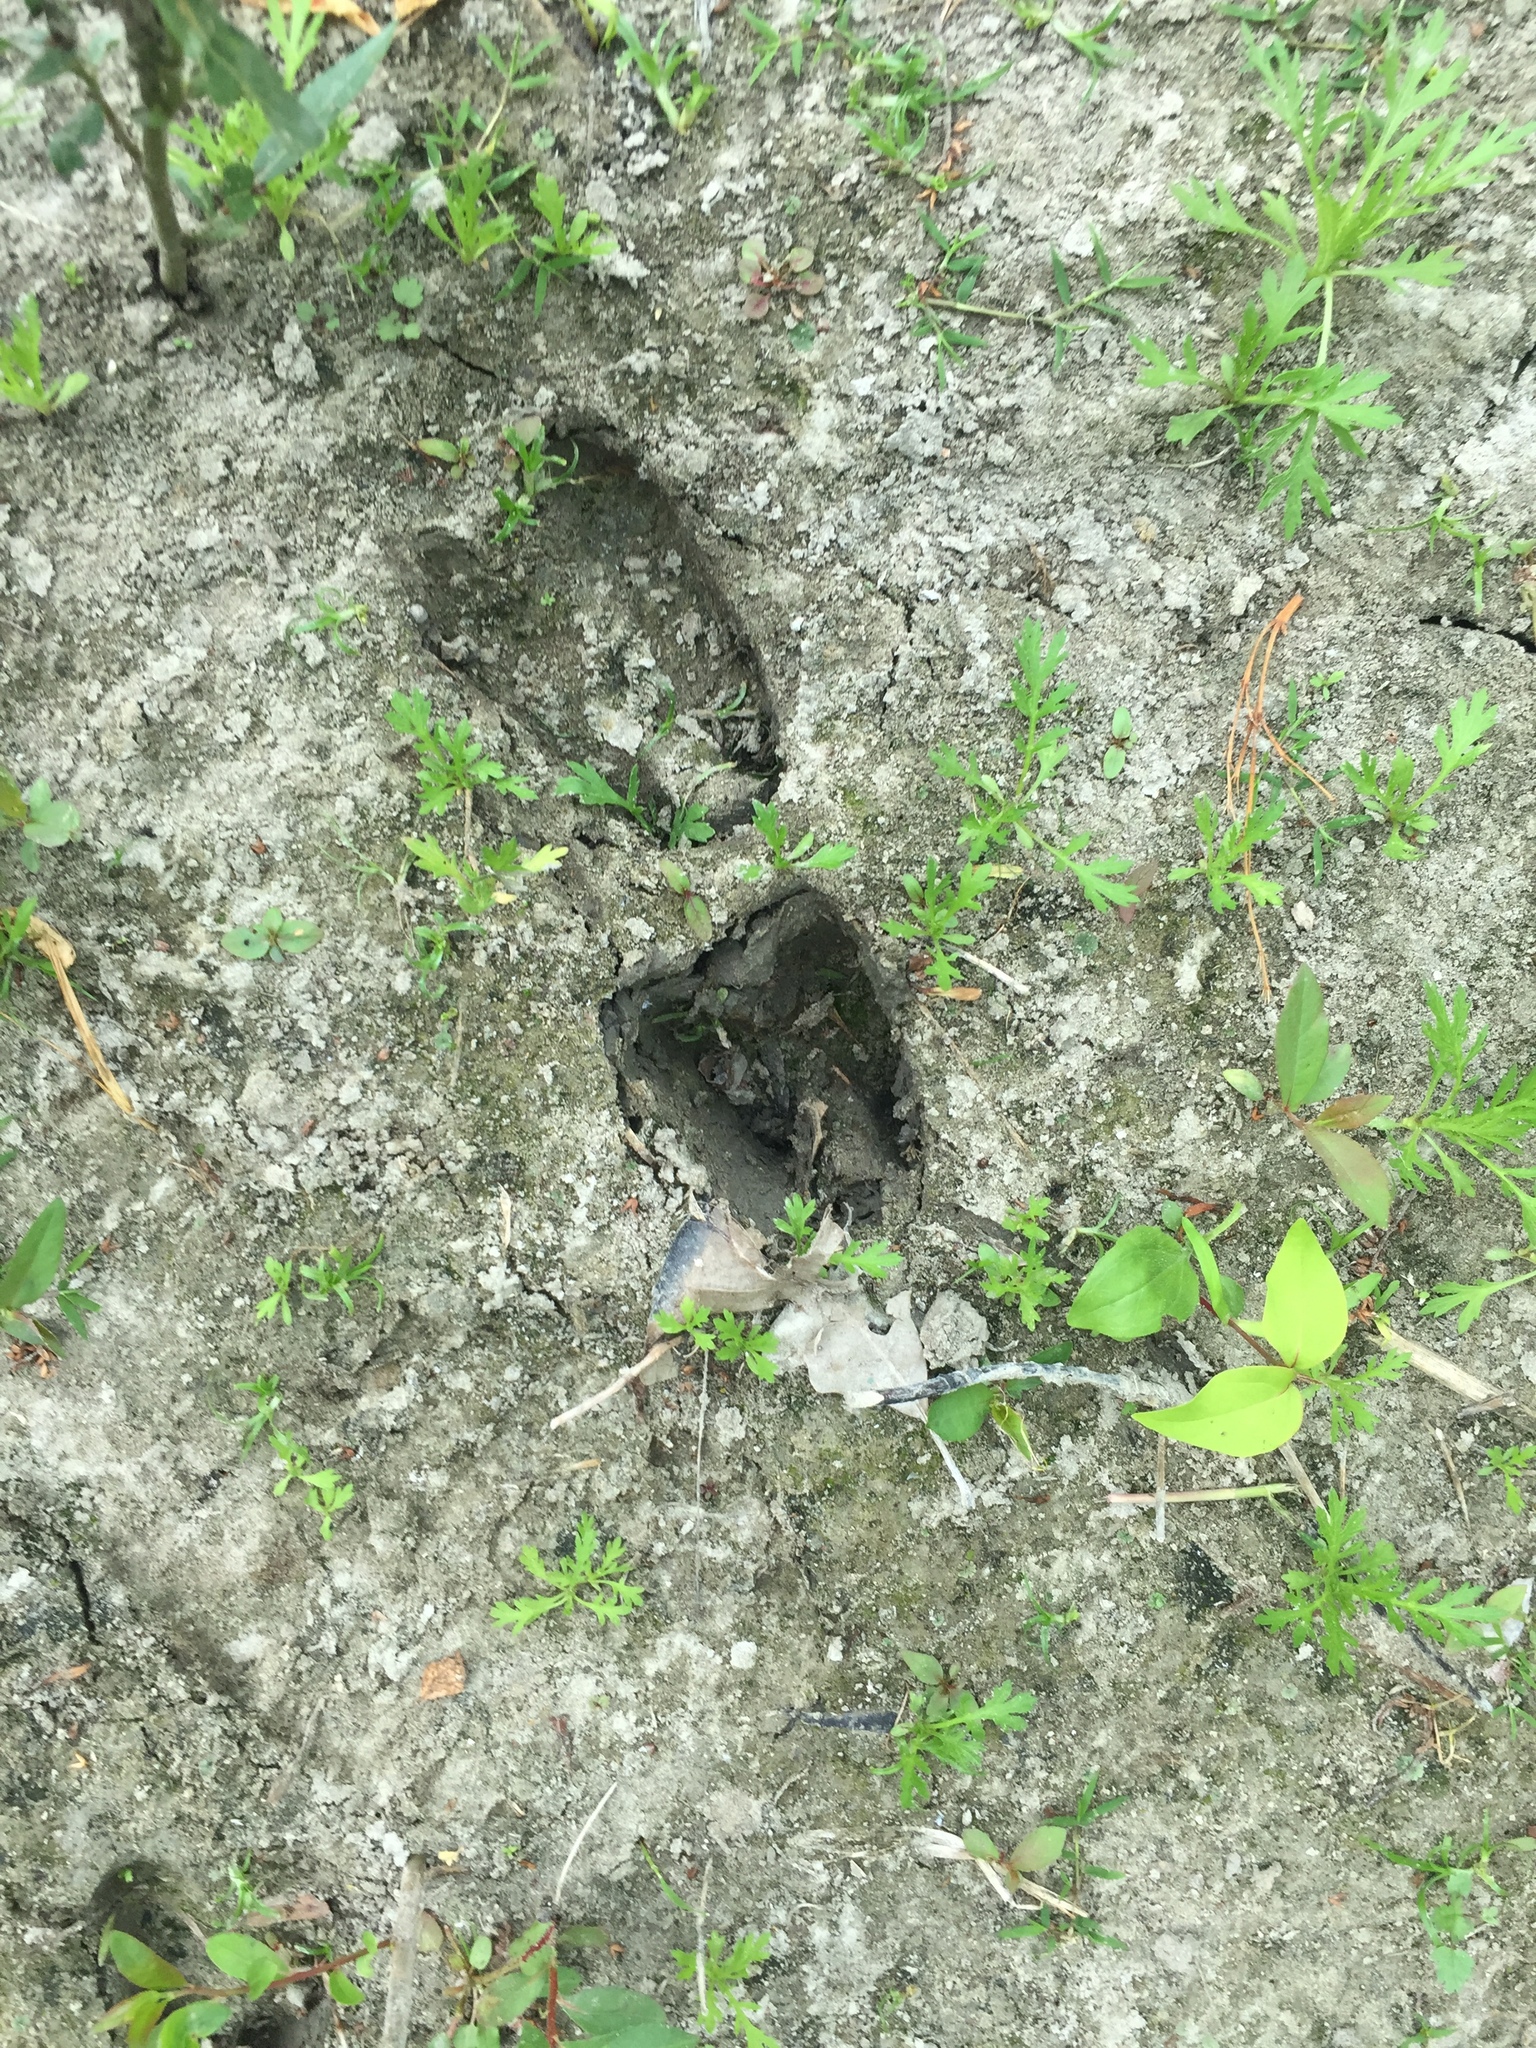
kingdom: Animalia
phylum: Chordata
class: Mammalia
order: Artiodactyla
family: Cervidae
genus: Odocoileus
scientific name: Odocoileus virginianus
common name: White-tailed deer
